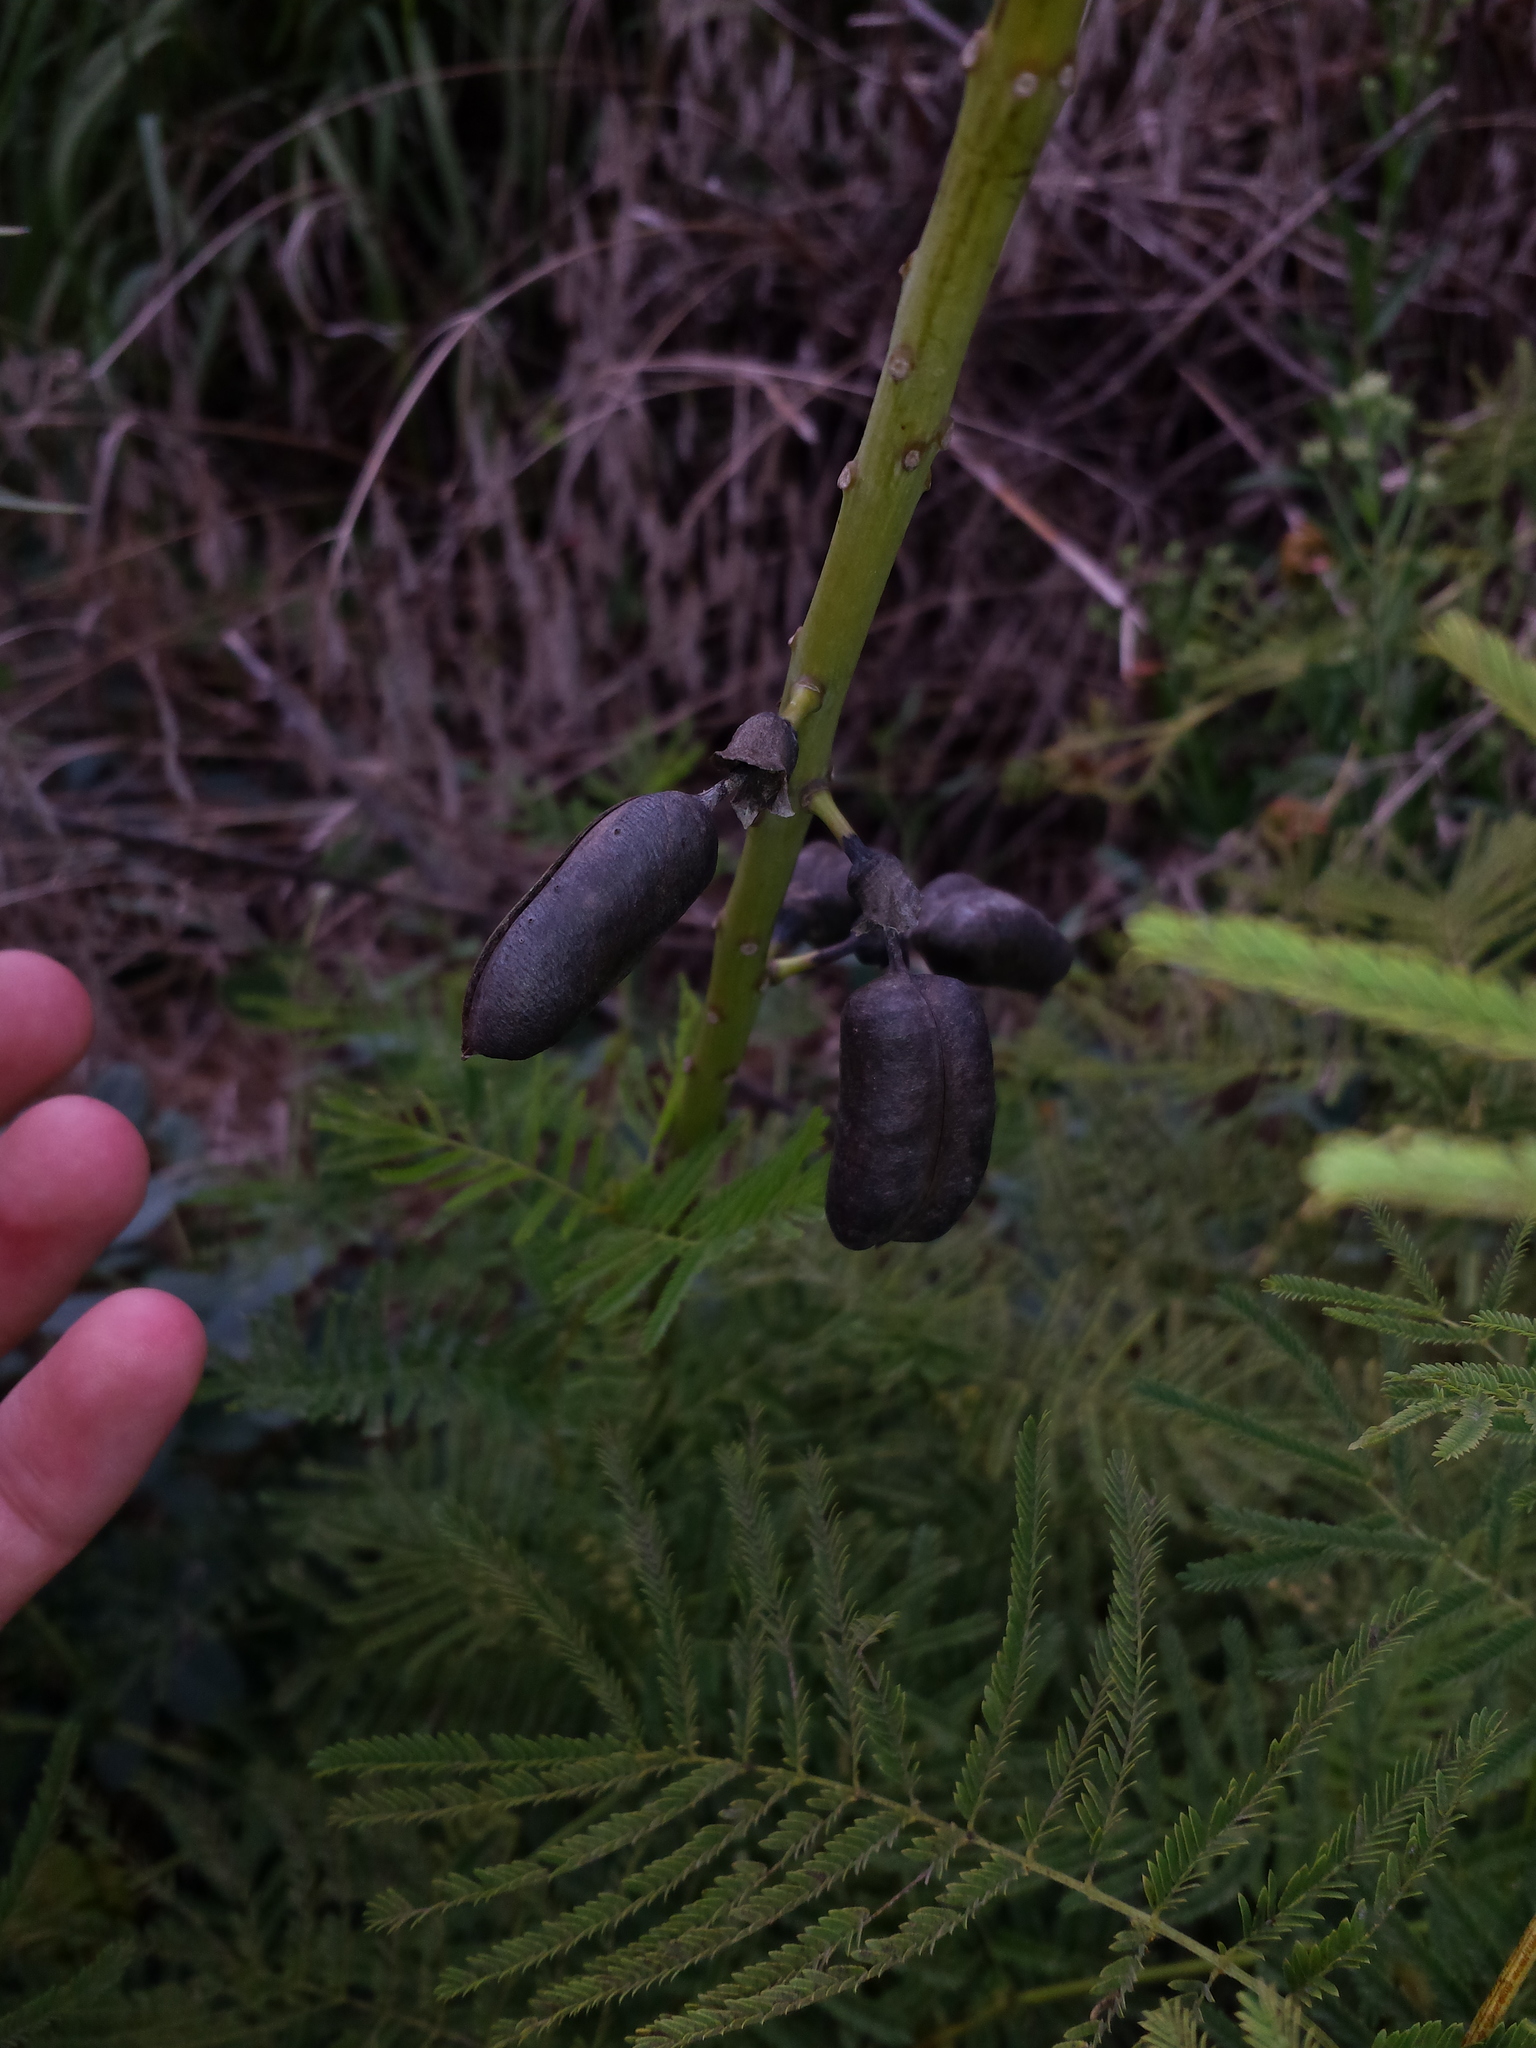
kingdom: Plantae
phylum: Tracheophyta
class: Magnoliopsida
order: Fabales
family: Fabaceae
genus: Baptisia
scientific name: Baptisia alba
